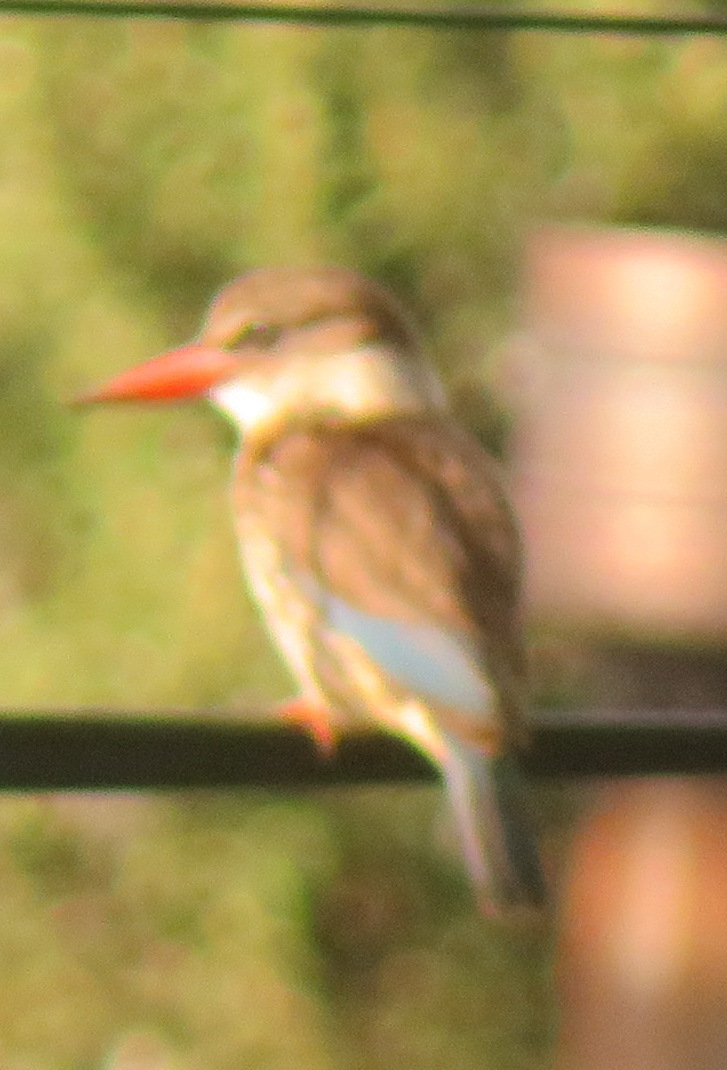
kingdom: Animalia
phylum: Chordata
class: Aves
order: Coraciiformes
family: Alcedinidae
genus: Halcyon
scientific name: Halcyon albiventris
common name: Brown-hooded kingfisher
